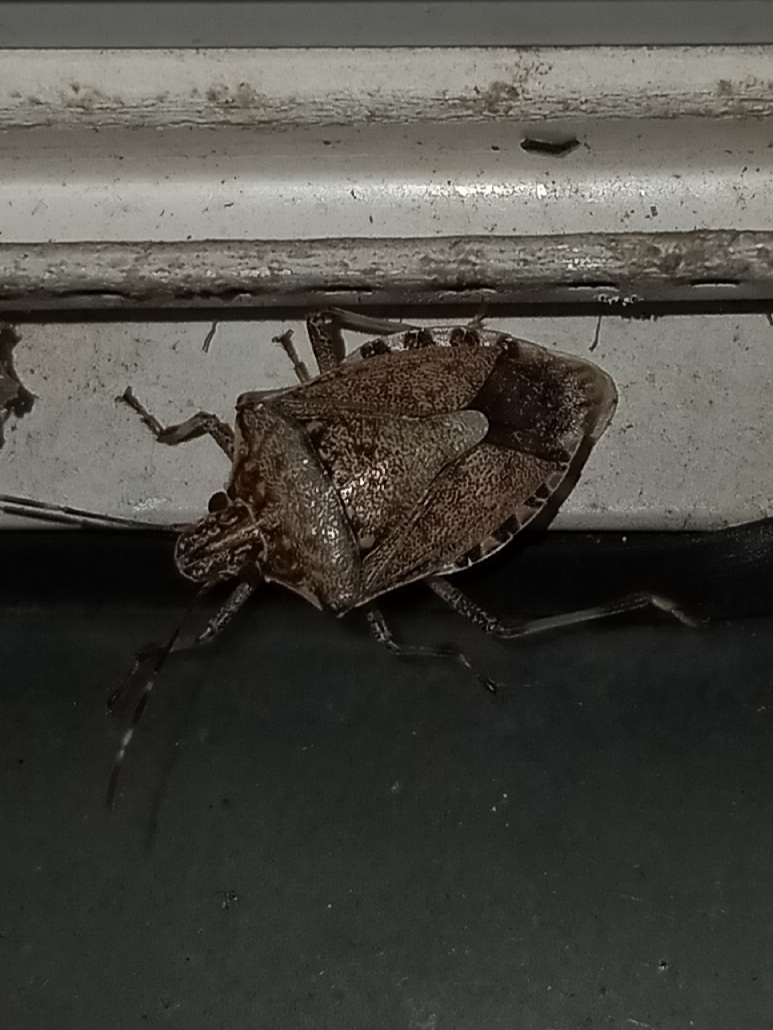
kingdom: Animalia
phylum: Arthropoda
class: Insecta
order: Hemiptera
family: Pentatomidae
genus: Halyomorpha
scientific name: Halyomorpha halys
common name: Brown marmorated stink bug
